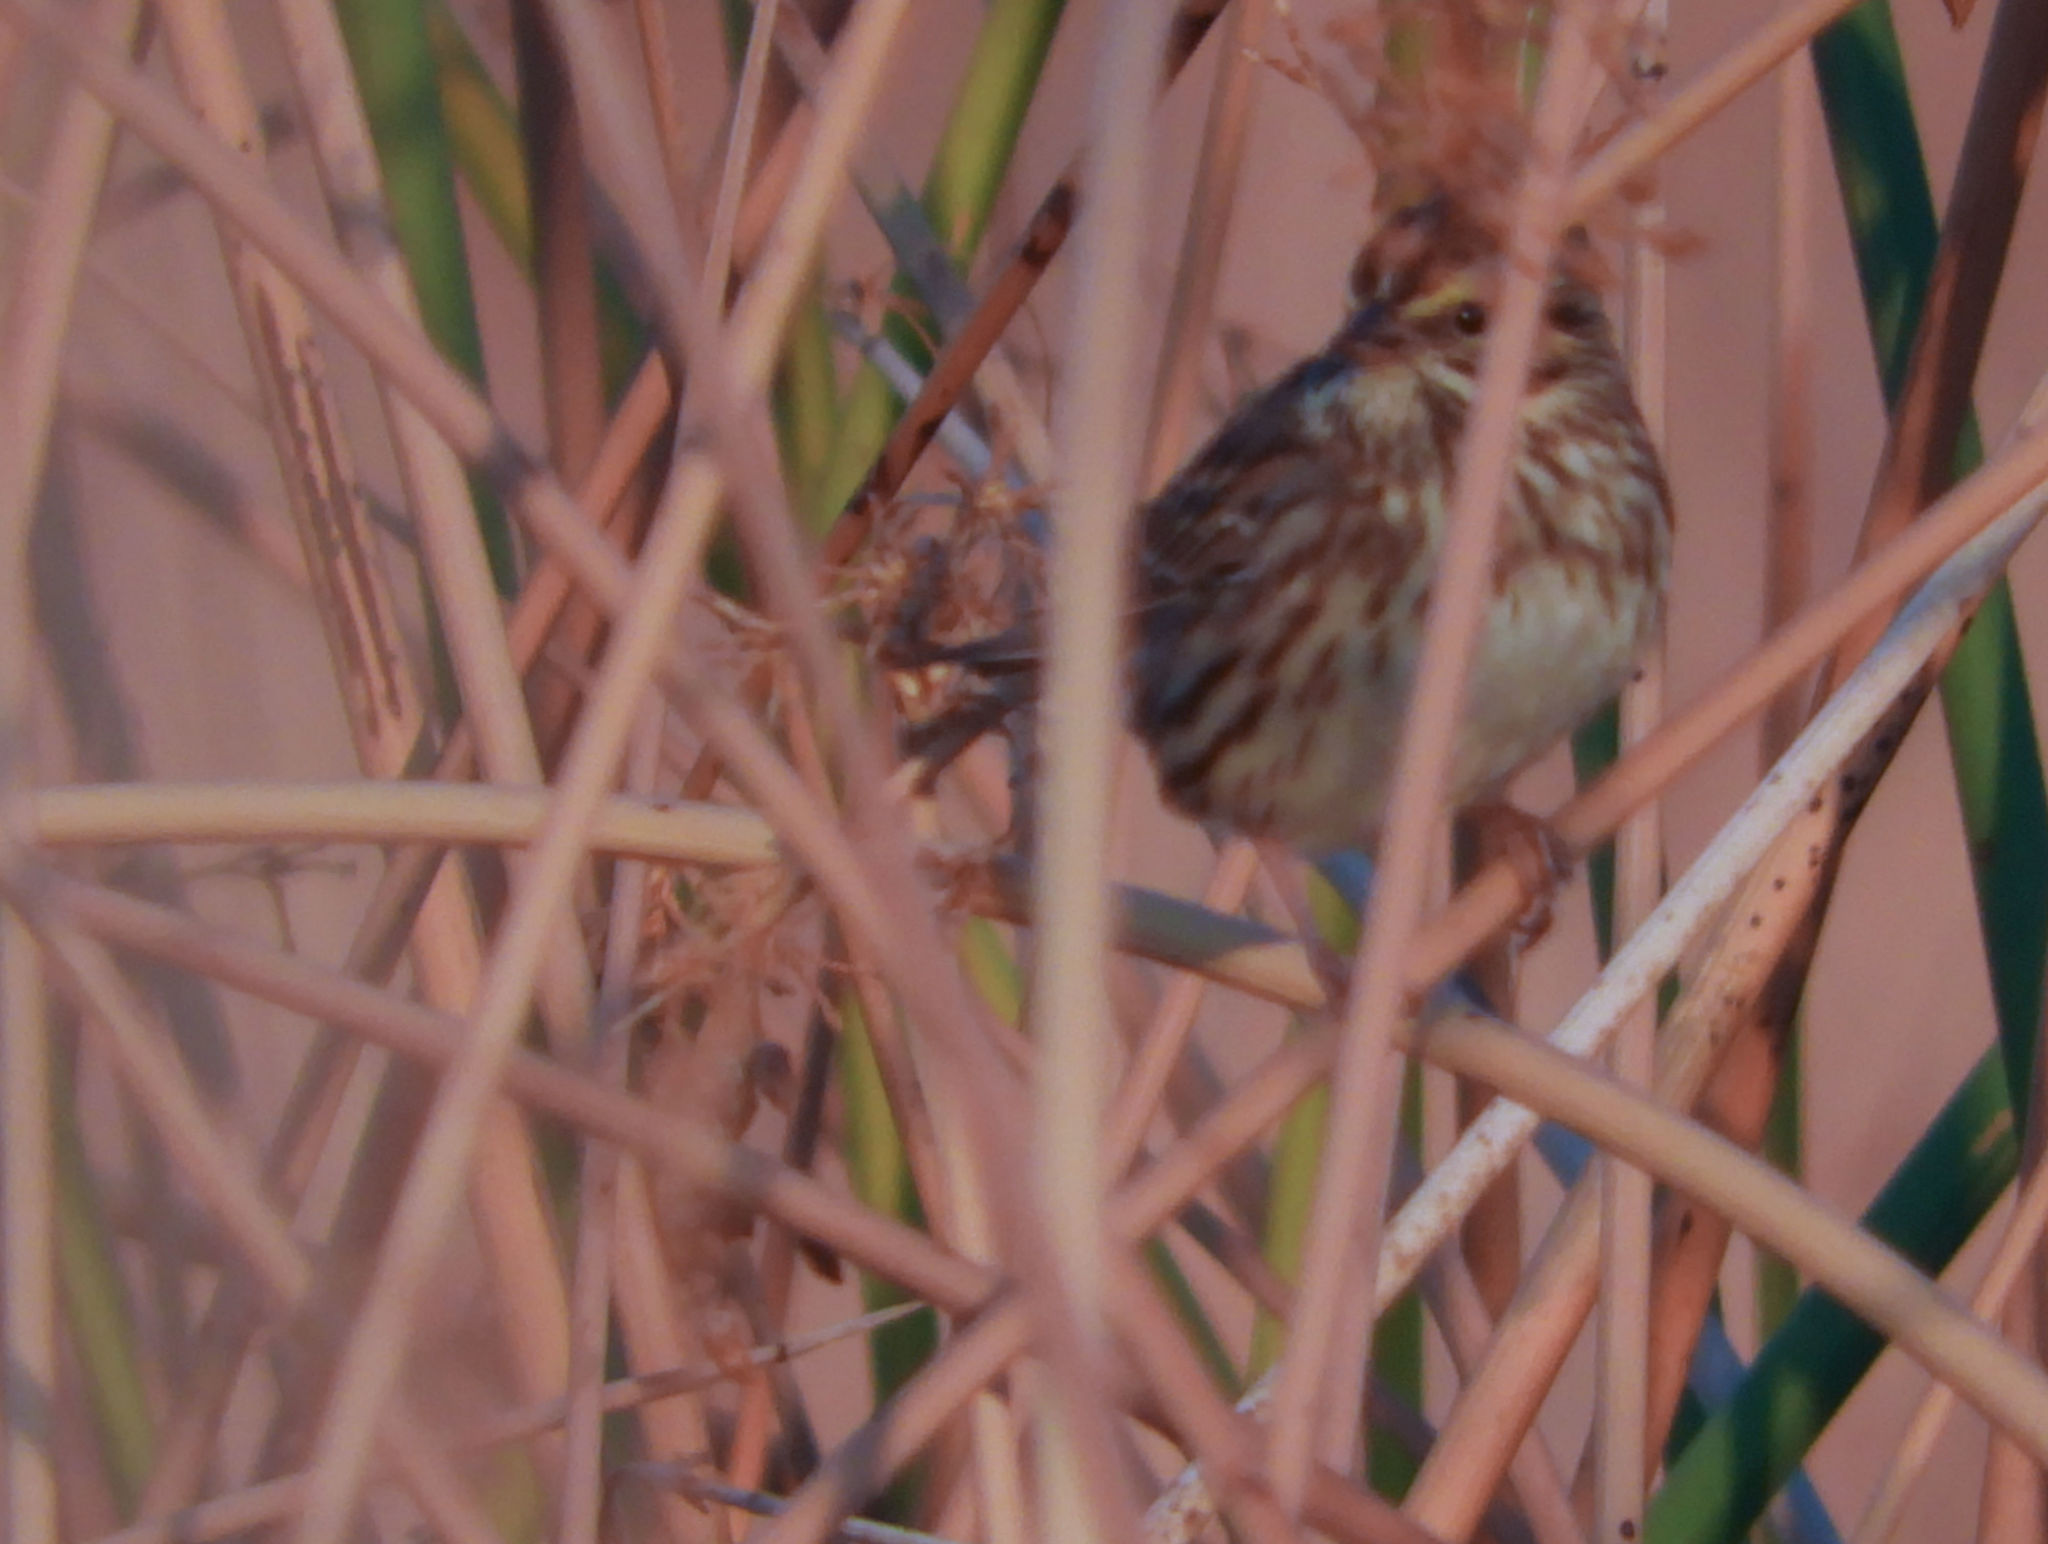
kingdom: Animalia
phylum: Chordata
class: Aves
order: Passeriformes
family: Passerellidae
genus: Passerculus
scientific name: Passerculus sandwichensis
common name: Savannah sparrow
